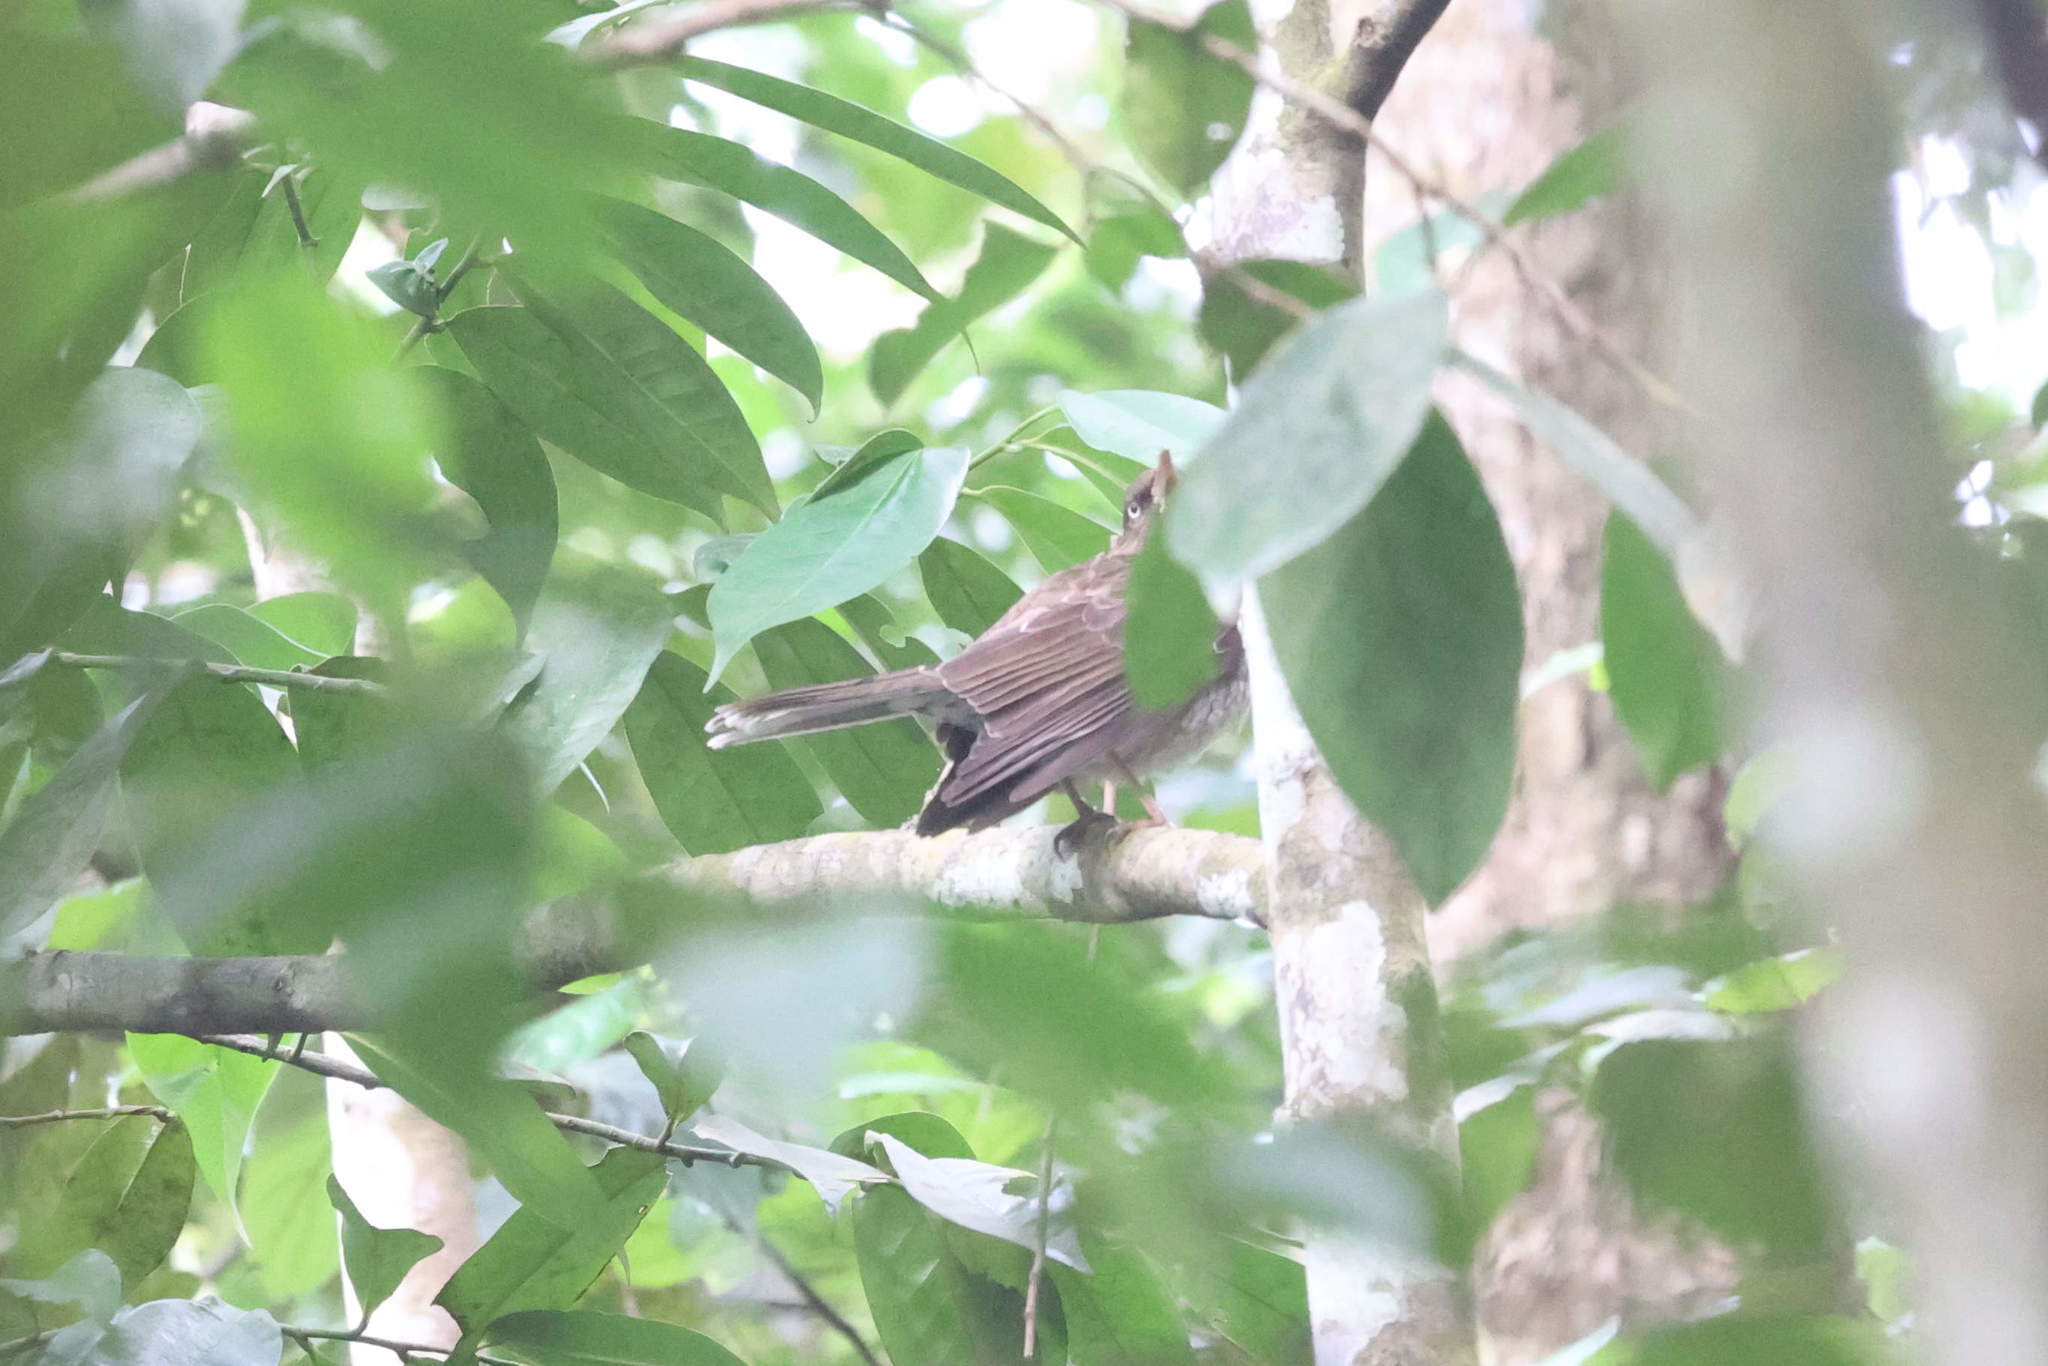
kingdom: Animalia
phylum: Chordata
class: Aves
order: Passeriformes
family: Mimidae
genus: Margarops
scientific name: Margarops fuscatus
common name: Pearly-eyed thrasher
